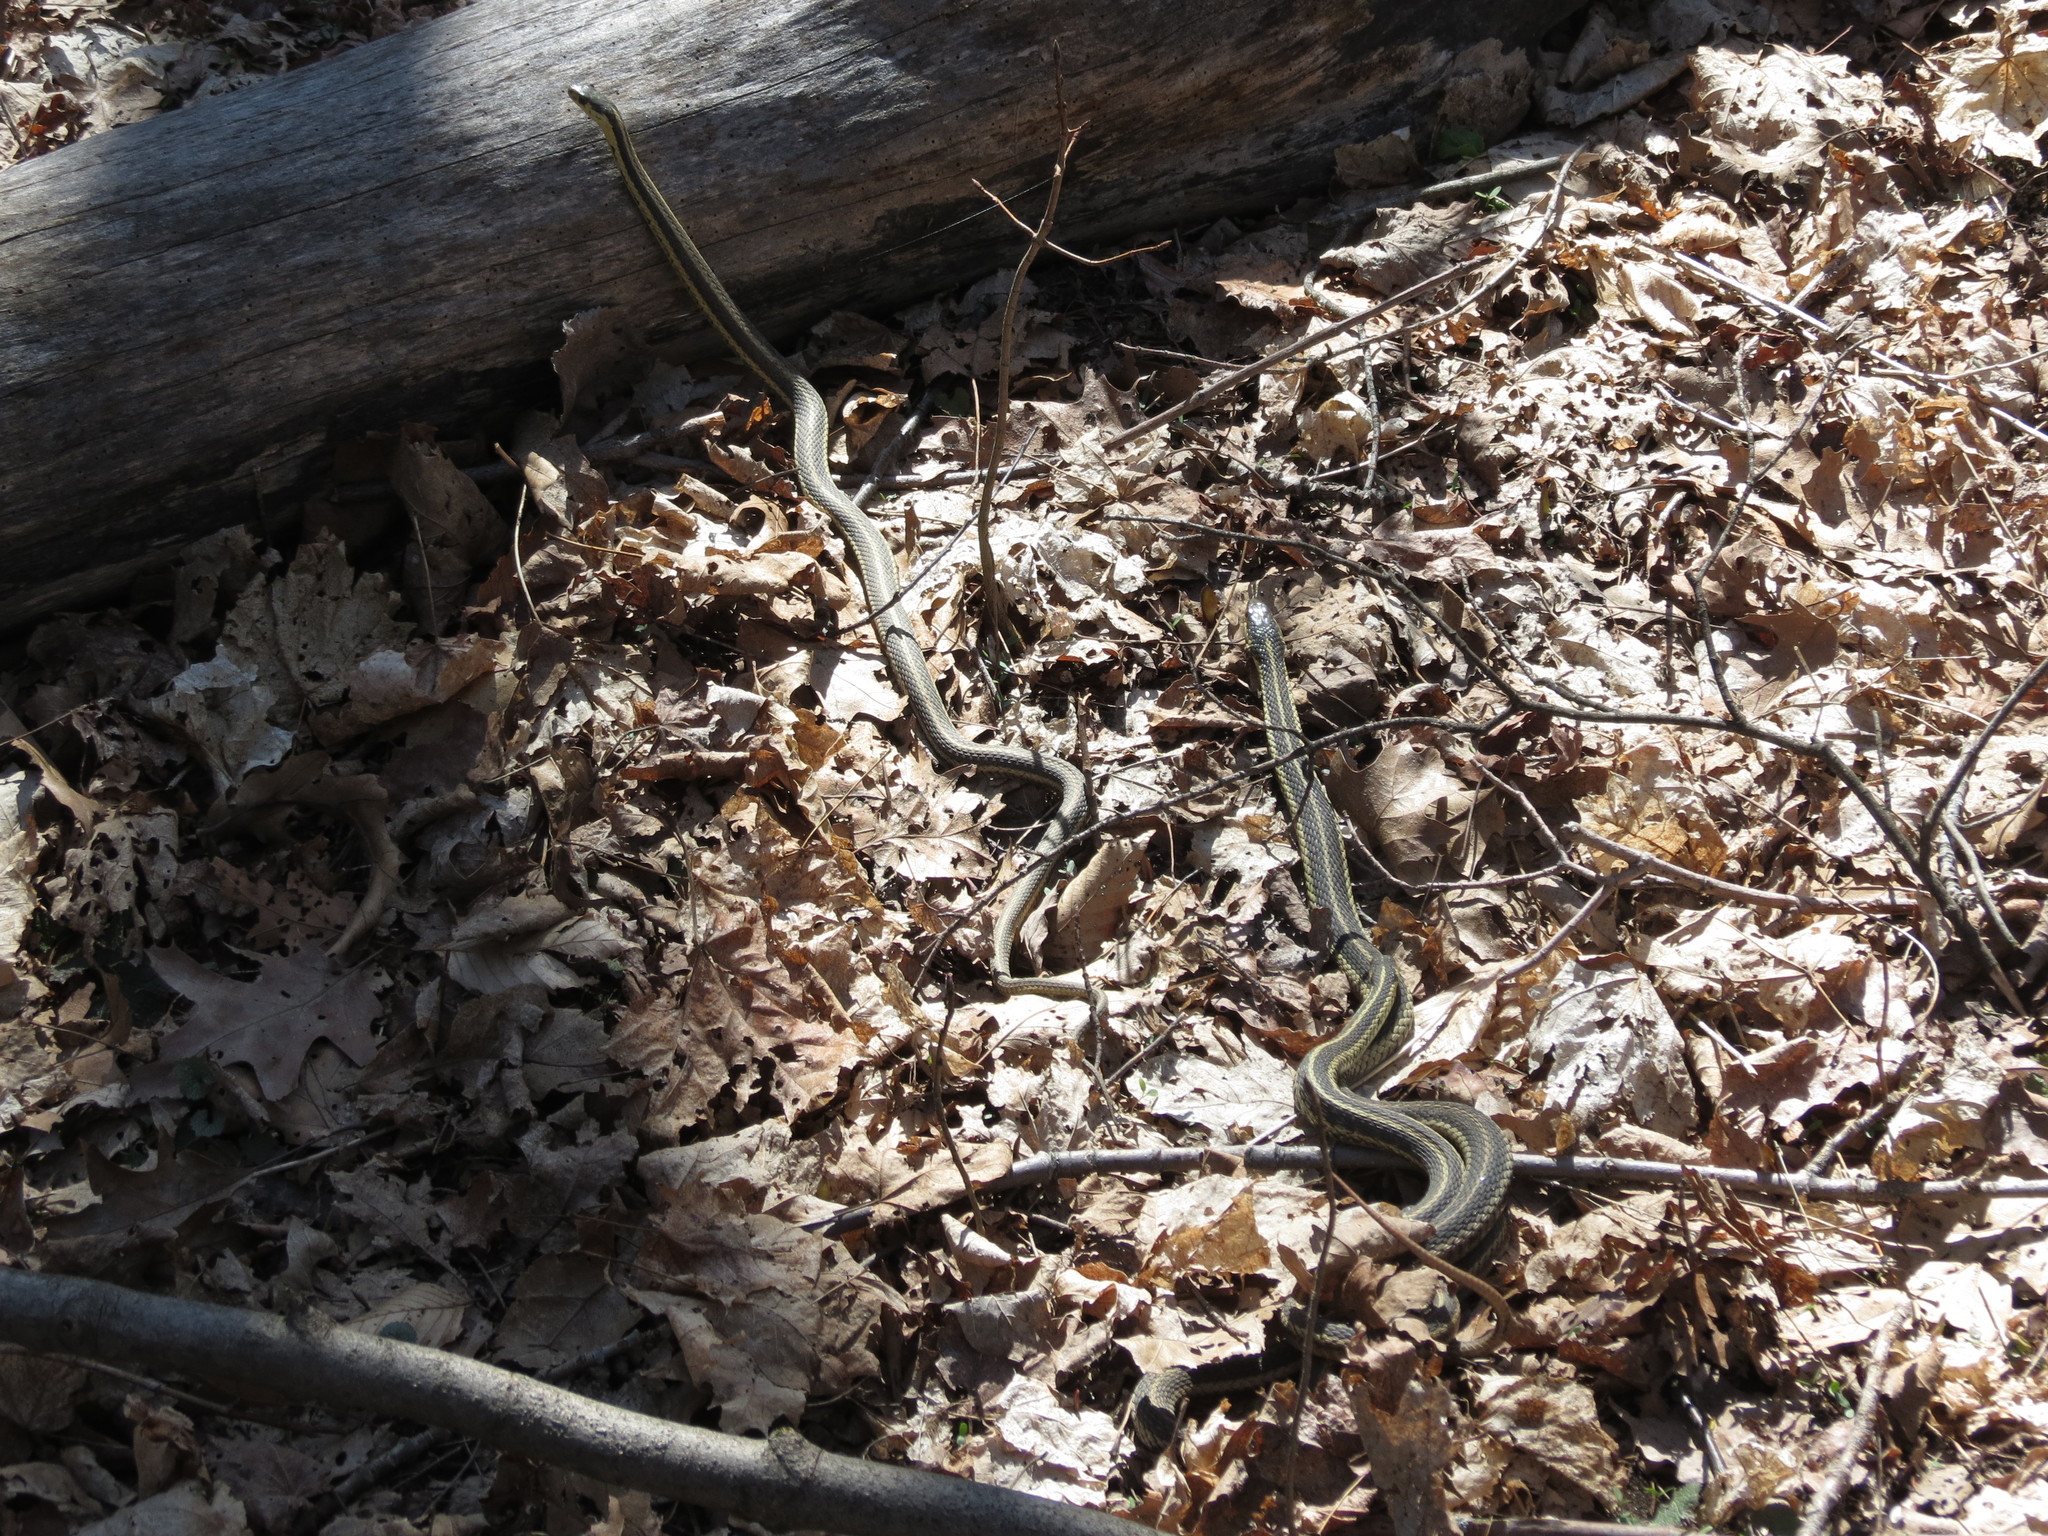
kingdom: Animalia
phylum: Chordata
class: Squamata
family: Colubridae
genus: Thamnophis
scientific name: Thamnophis sirtalis
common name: Common garter snake
